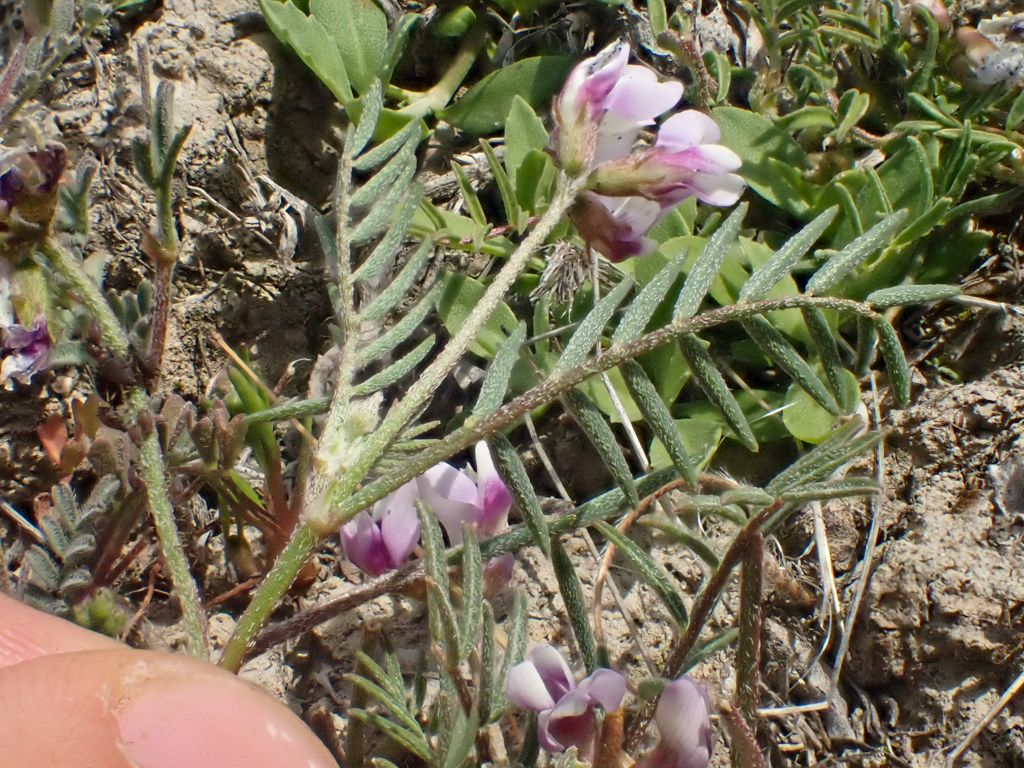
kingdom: Plantae
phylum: Tracheophyta
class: Magnoliopsida
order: Fabales
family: Fabaceae
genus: Astragalus
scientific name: Astragalus tener
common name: Gray slender milkvetch
